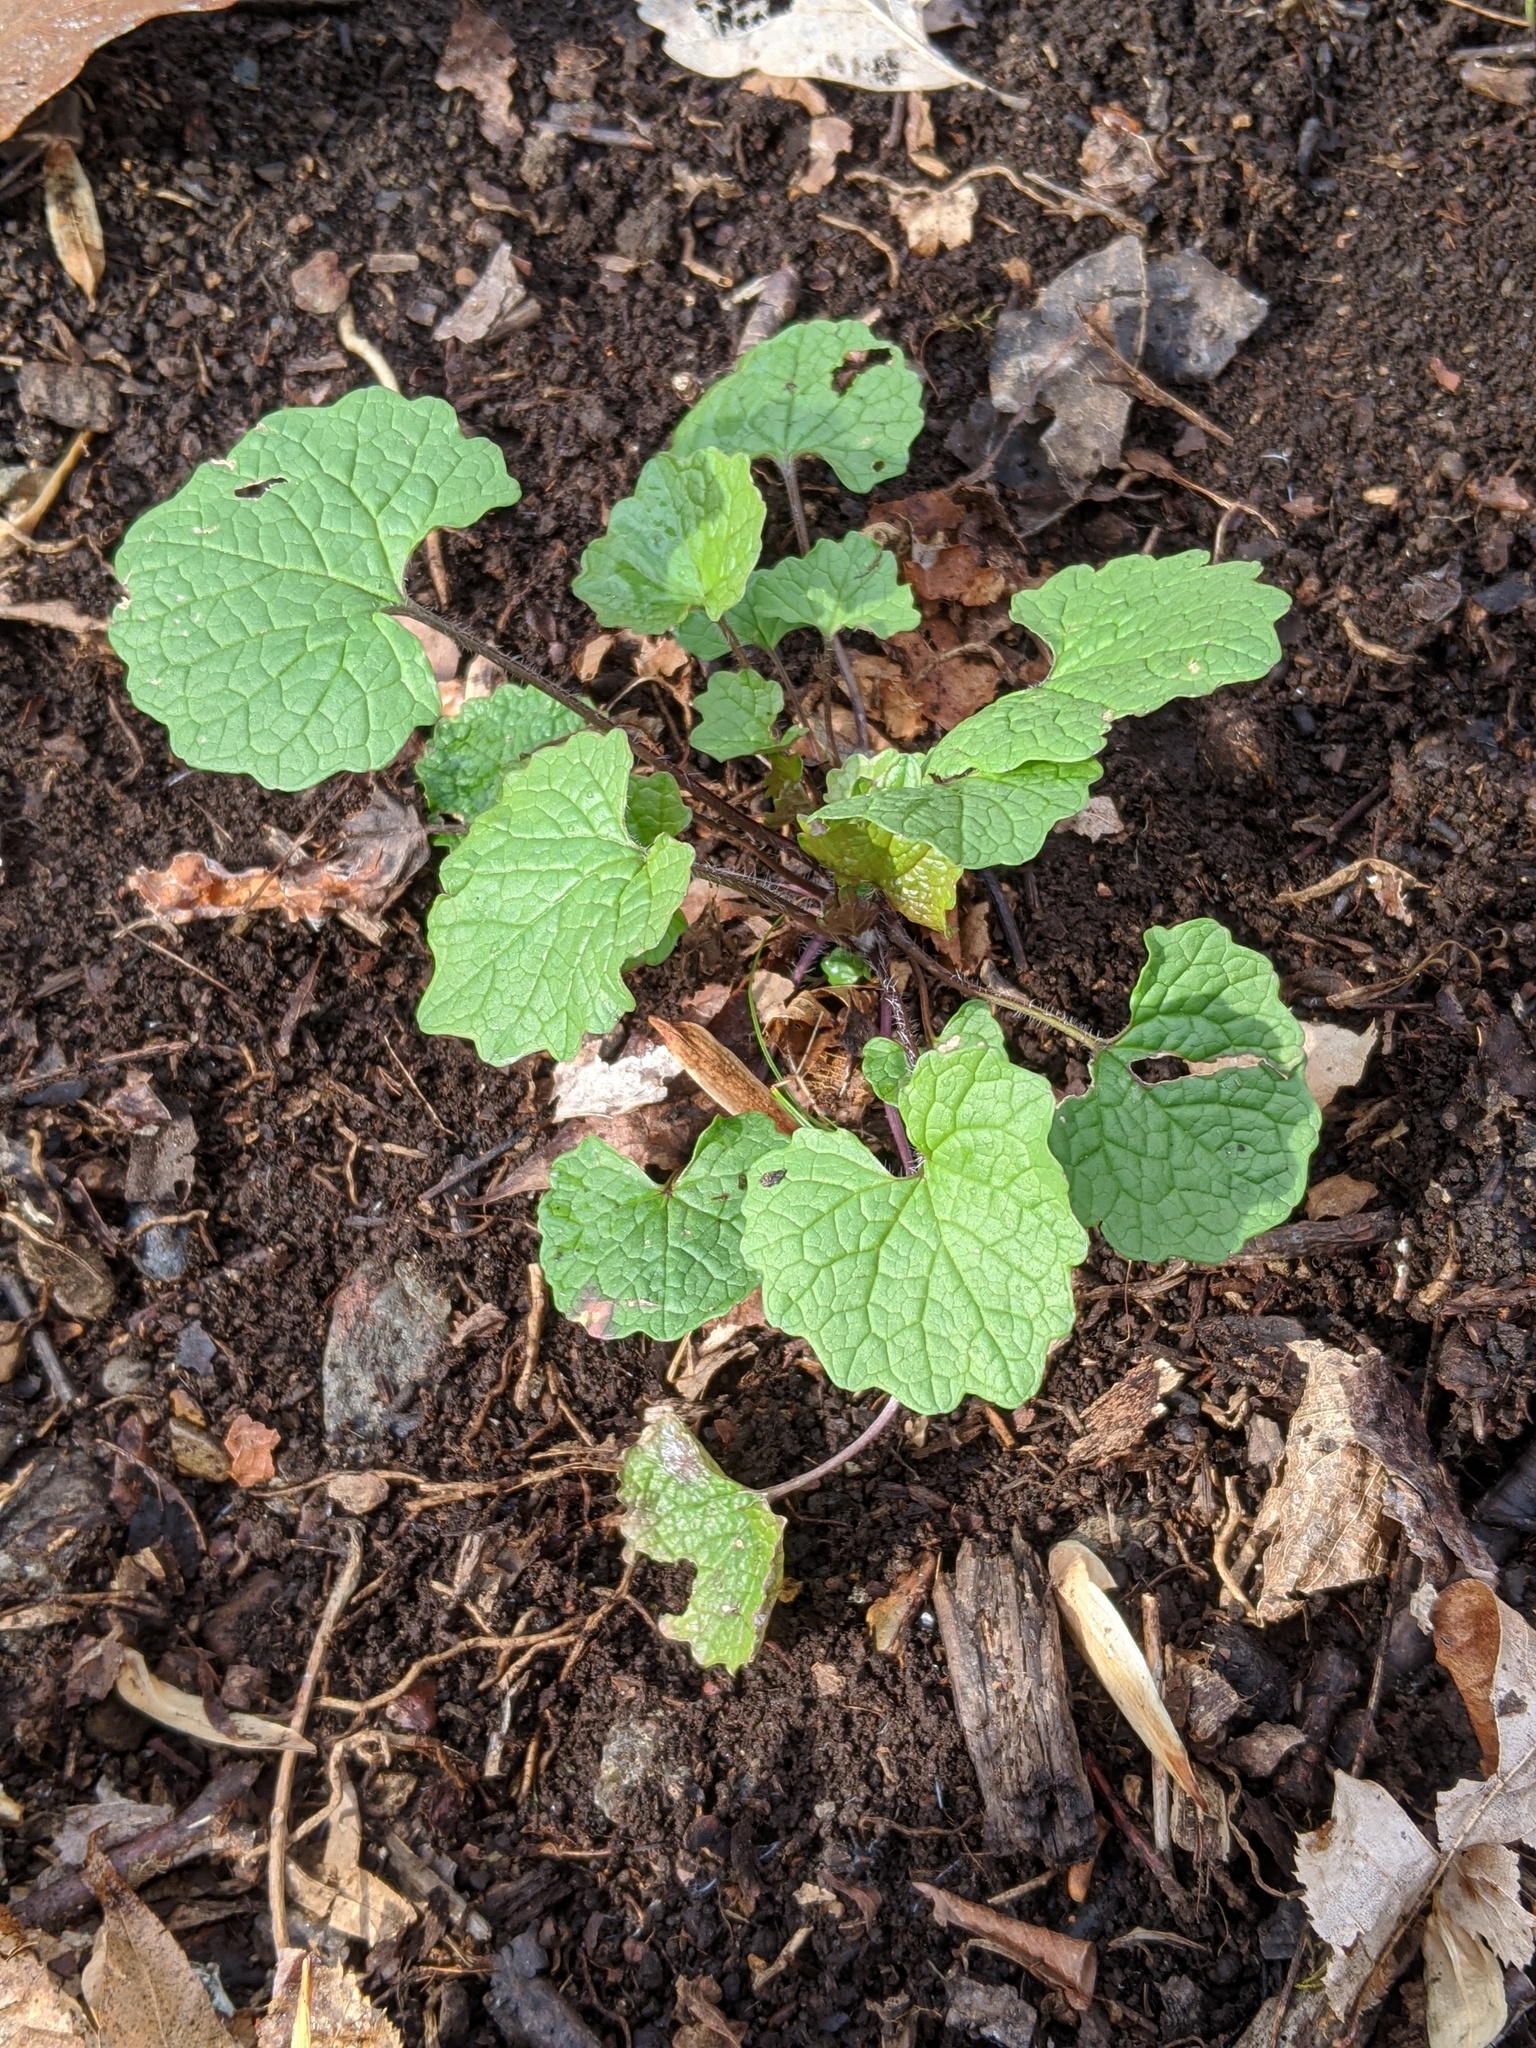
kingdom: Plantae
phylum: Tracheophyta
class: Magnoliopsida
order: Brassicales
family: Brassicaceae
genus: Alliaria
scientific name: Alliaria petiolata
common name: Garlic mustard
